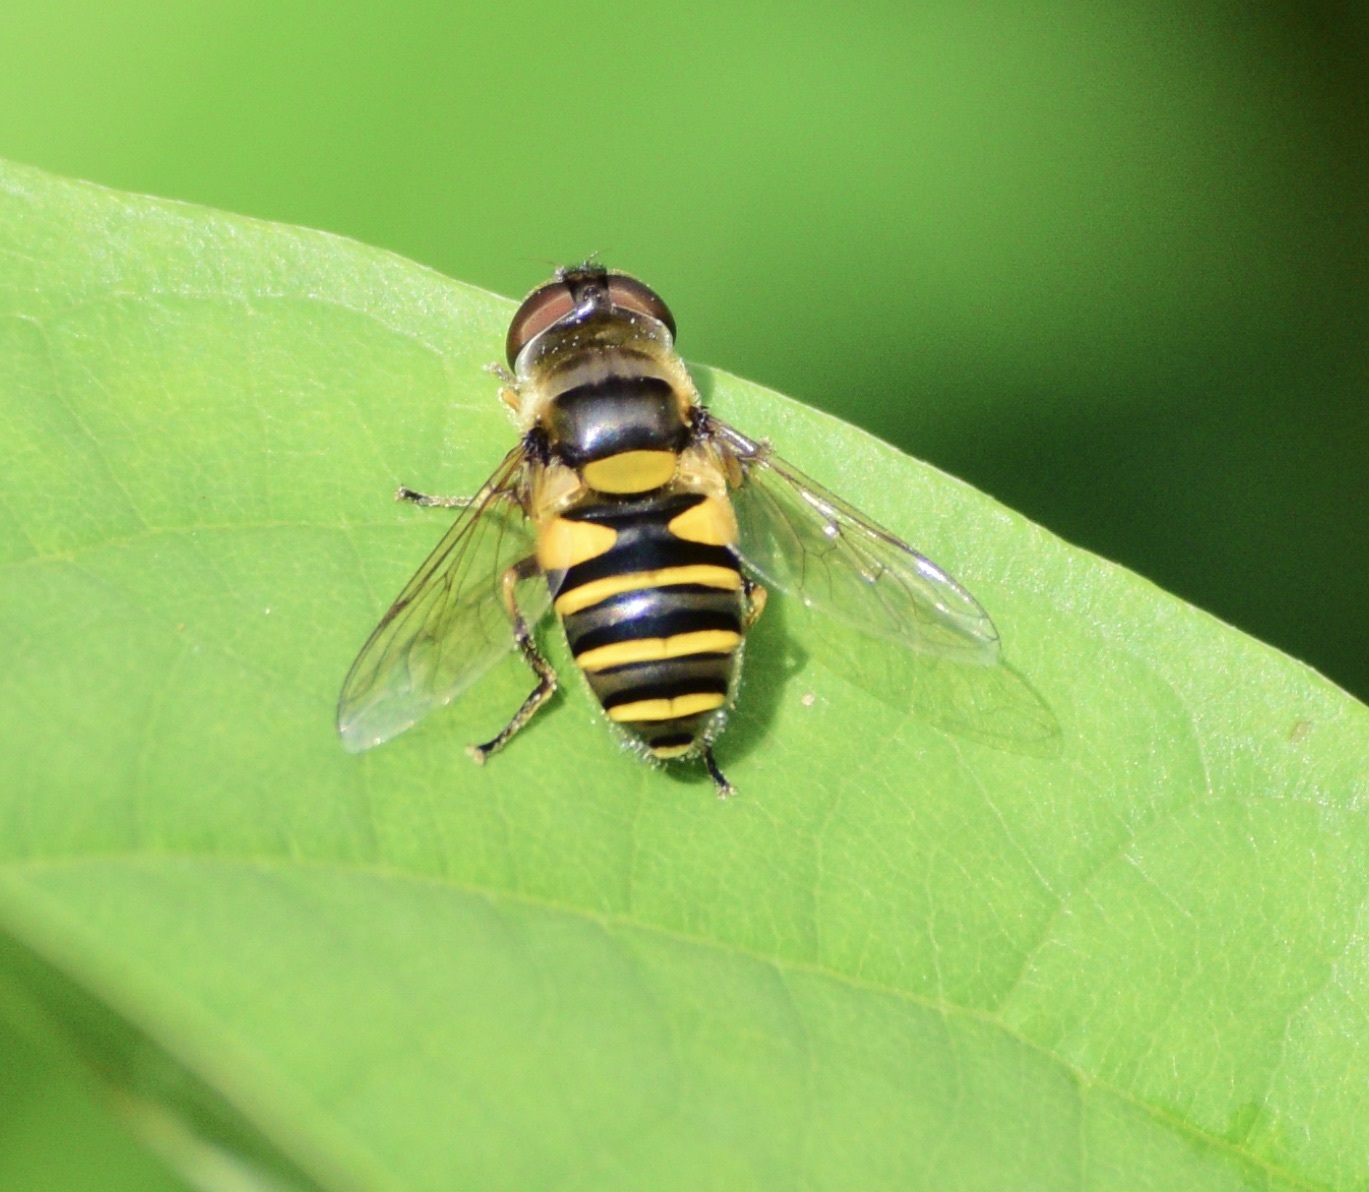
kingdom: Animalia
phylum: Arthropoda
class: Insecta
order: Diptera
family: Syrphidae
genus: Eristalis
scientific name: Eristalis transversa
